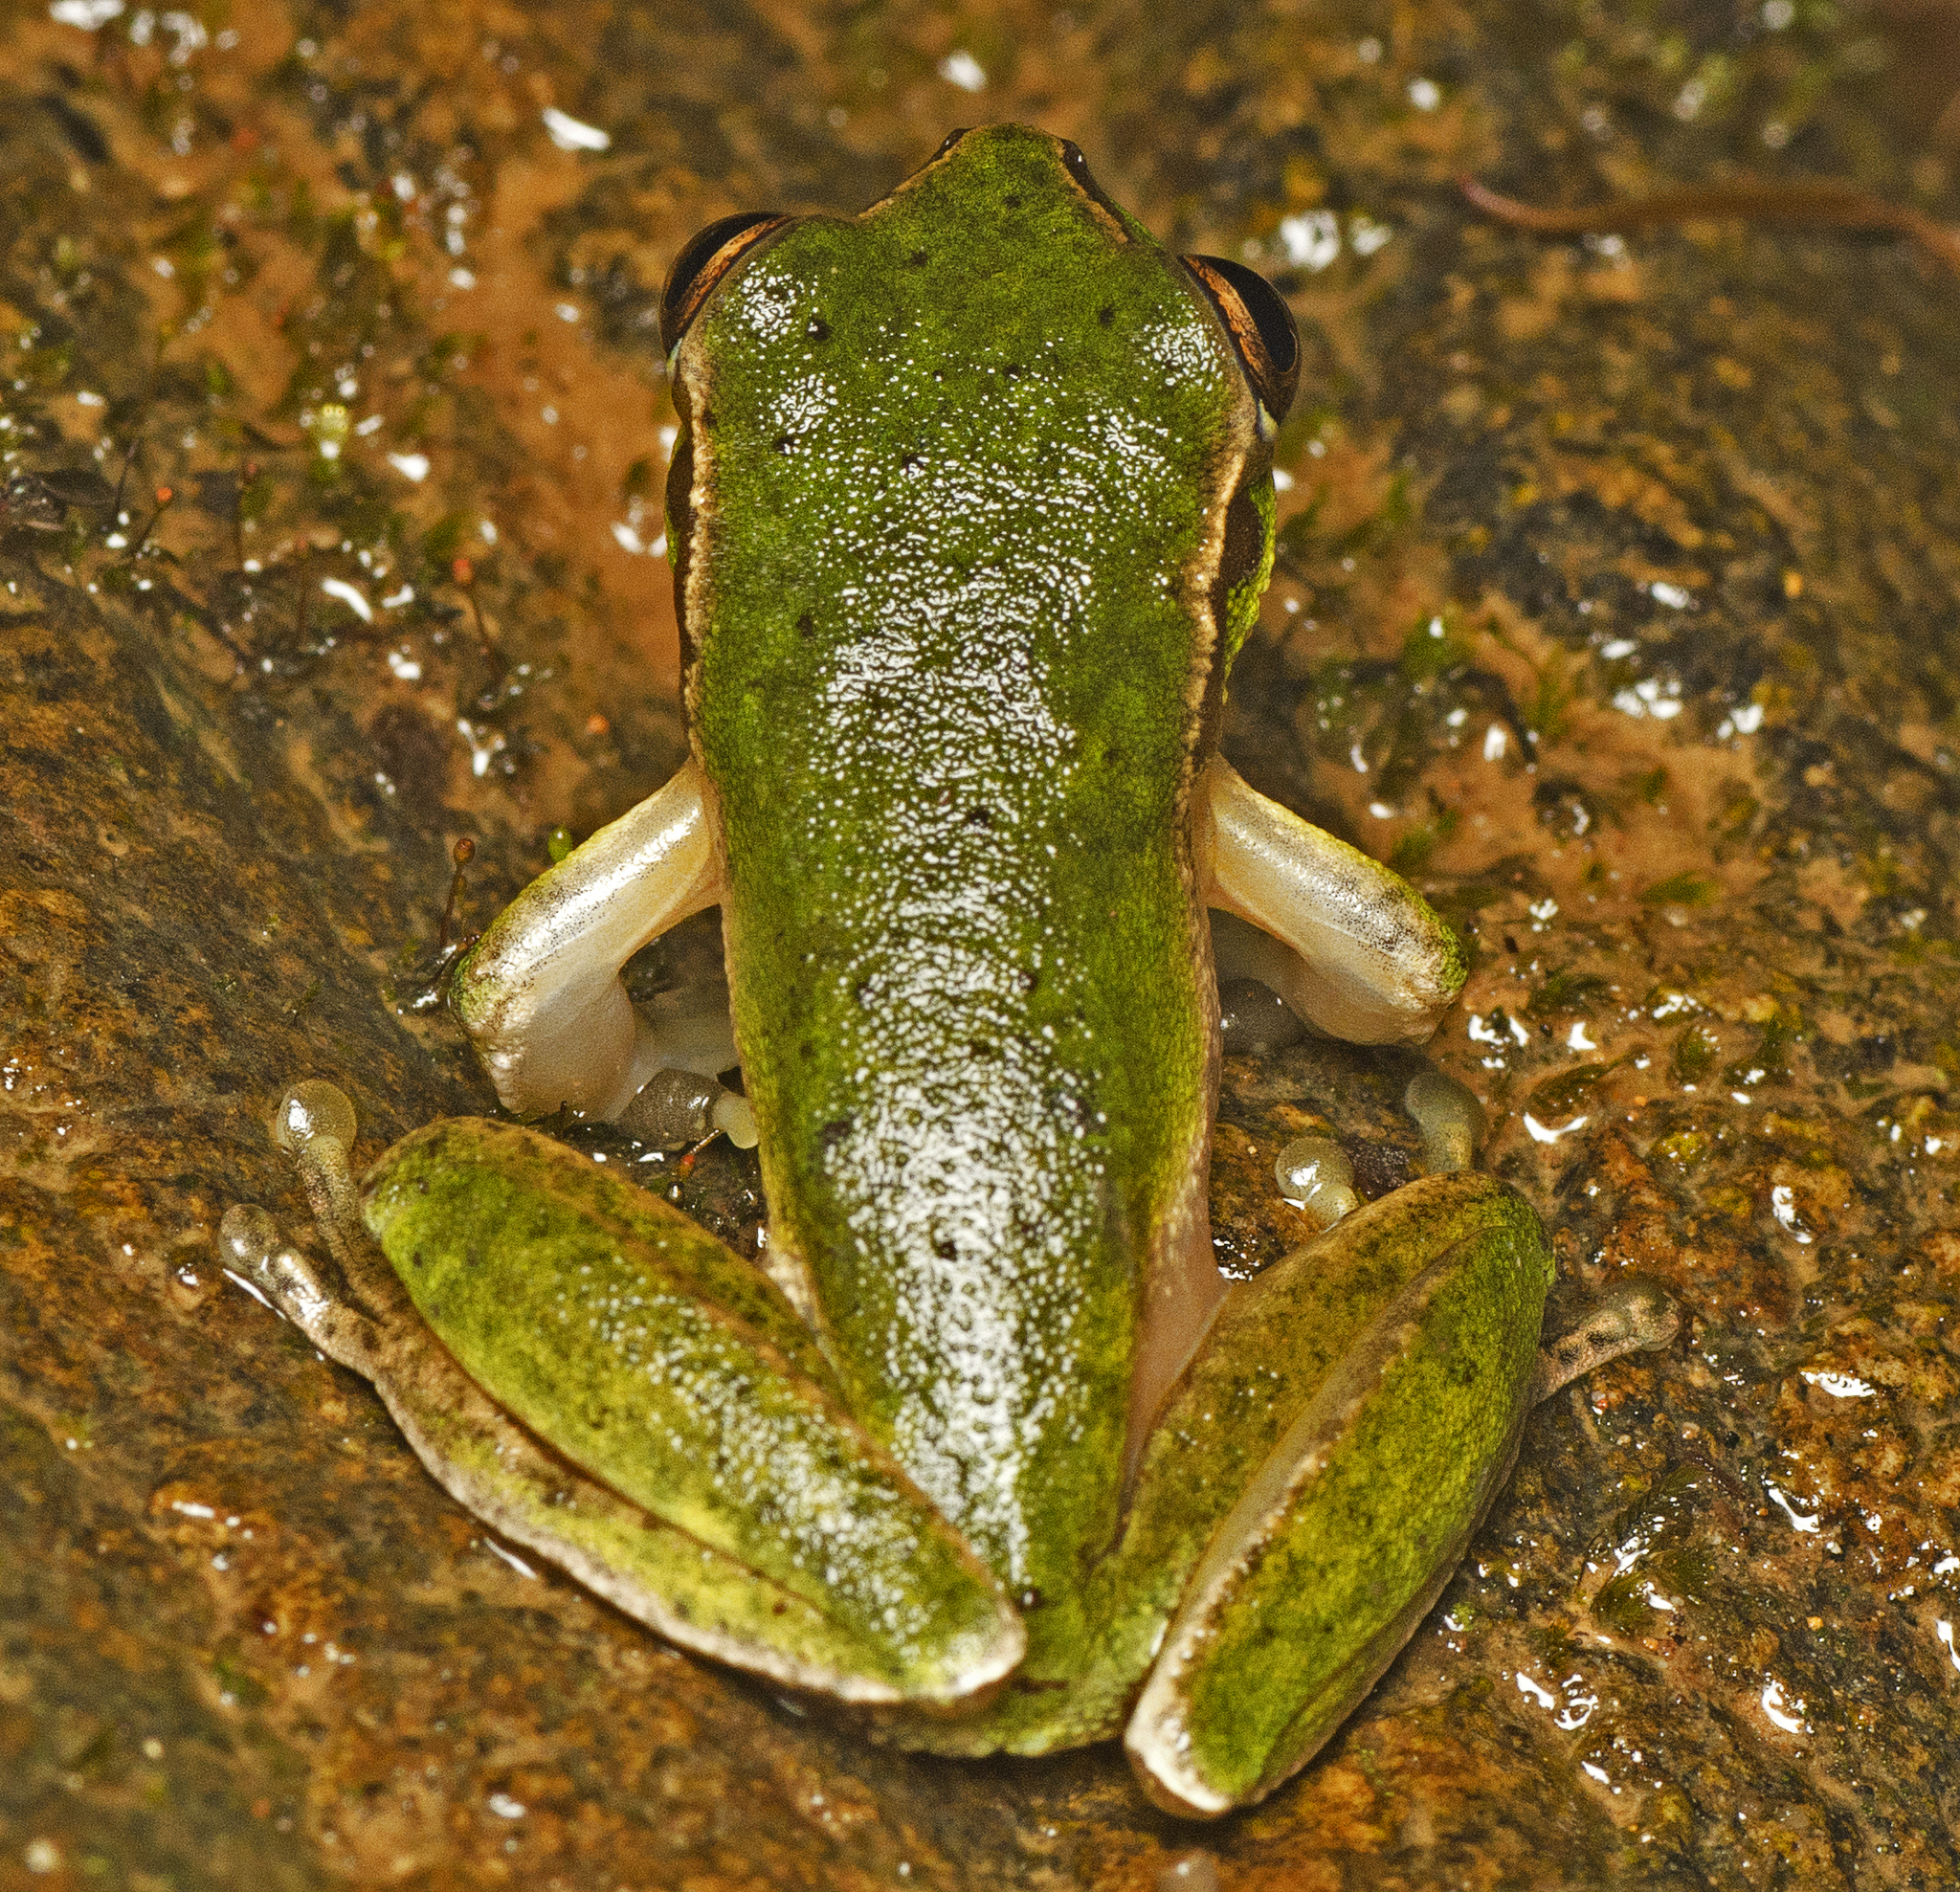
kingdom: Animalia
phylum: Chordata
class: Amphibia
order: Anura
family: Pelodryadidae
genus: Ranoidea
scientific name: Ranoidea pearsoniana
